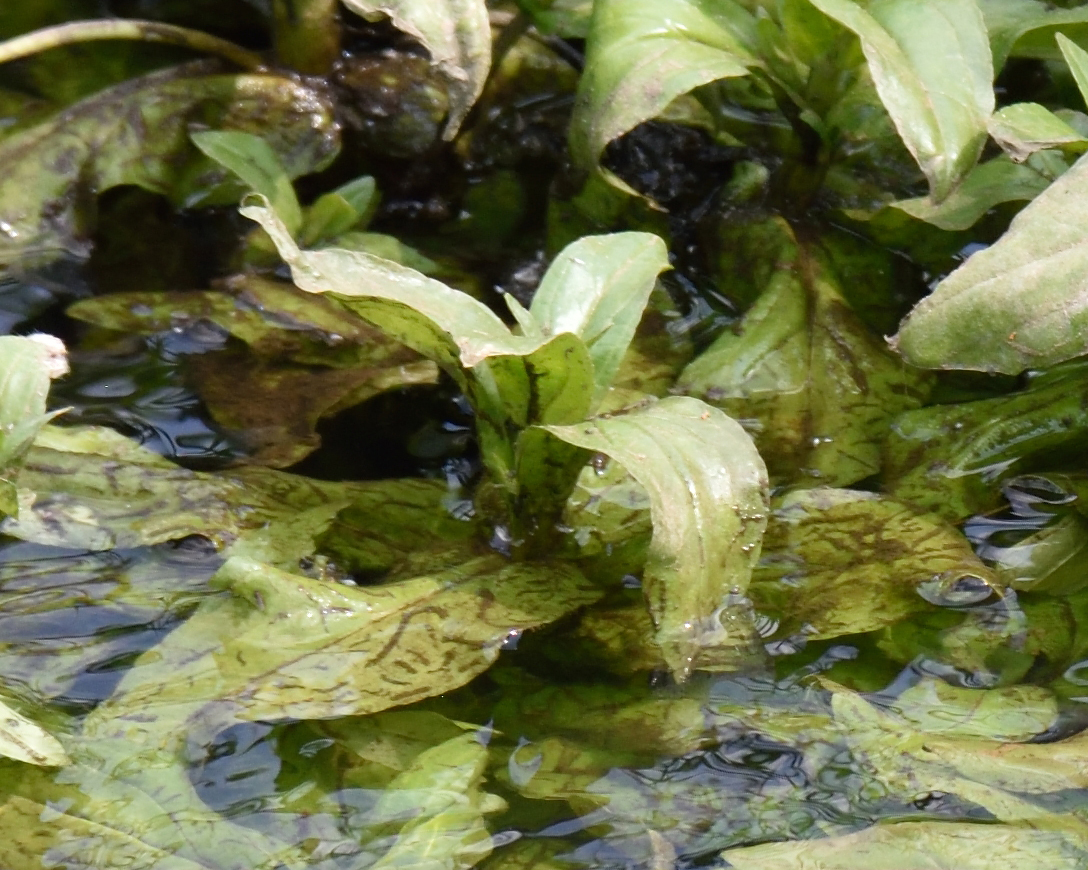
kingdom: Plantae
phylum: Tracheophyta
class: Magnoliopsida
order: Lamiales
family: Plantaginaceae
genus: Veronica
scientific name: Veronica anagallis-aquatica
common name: Water speedwell
